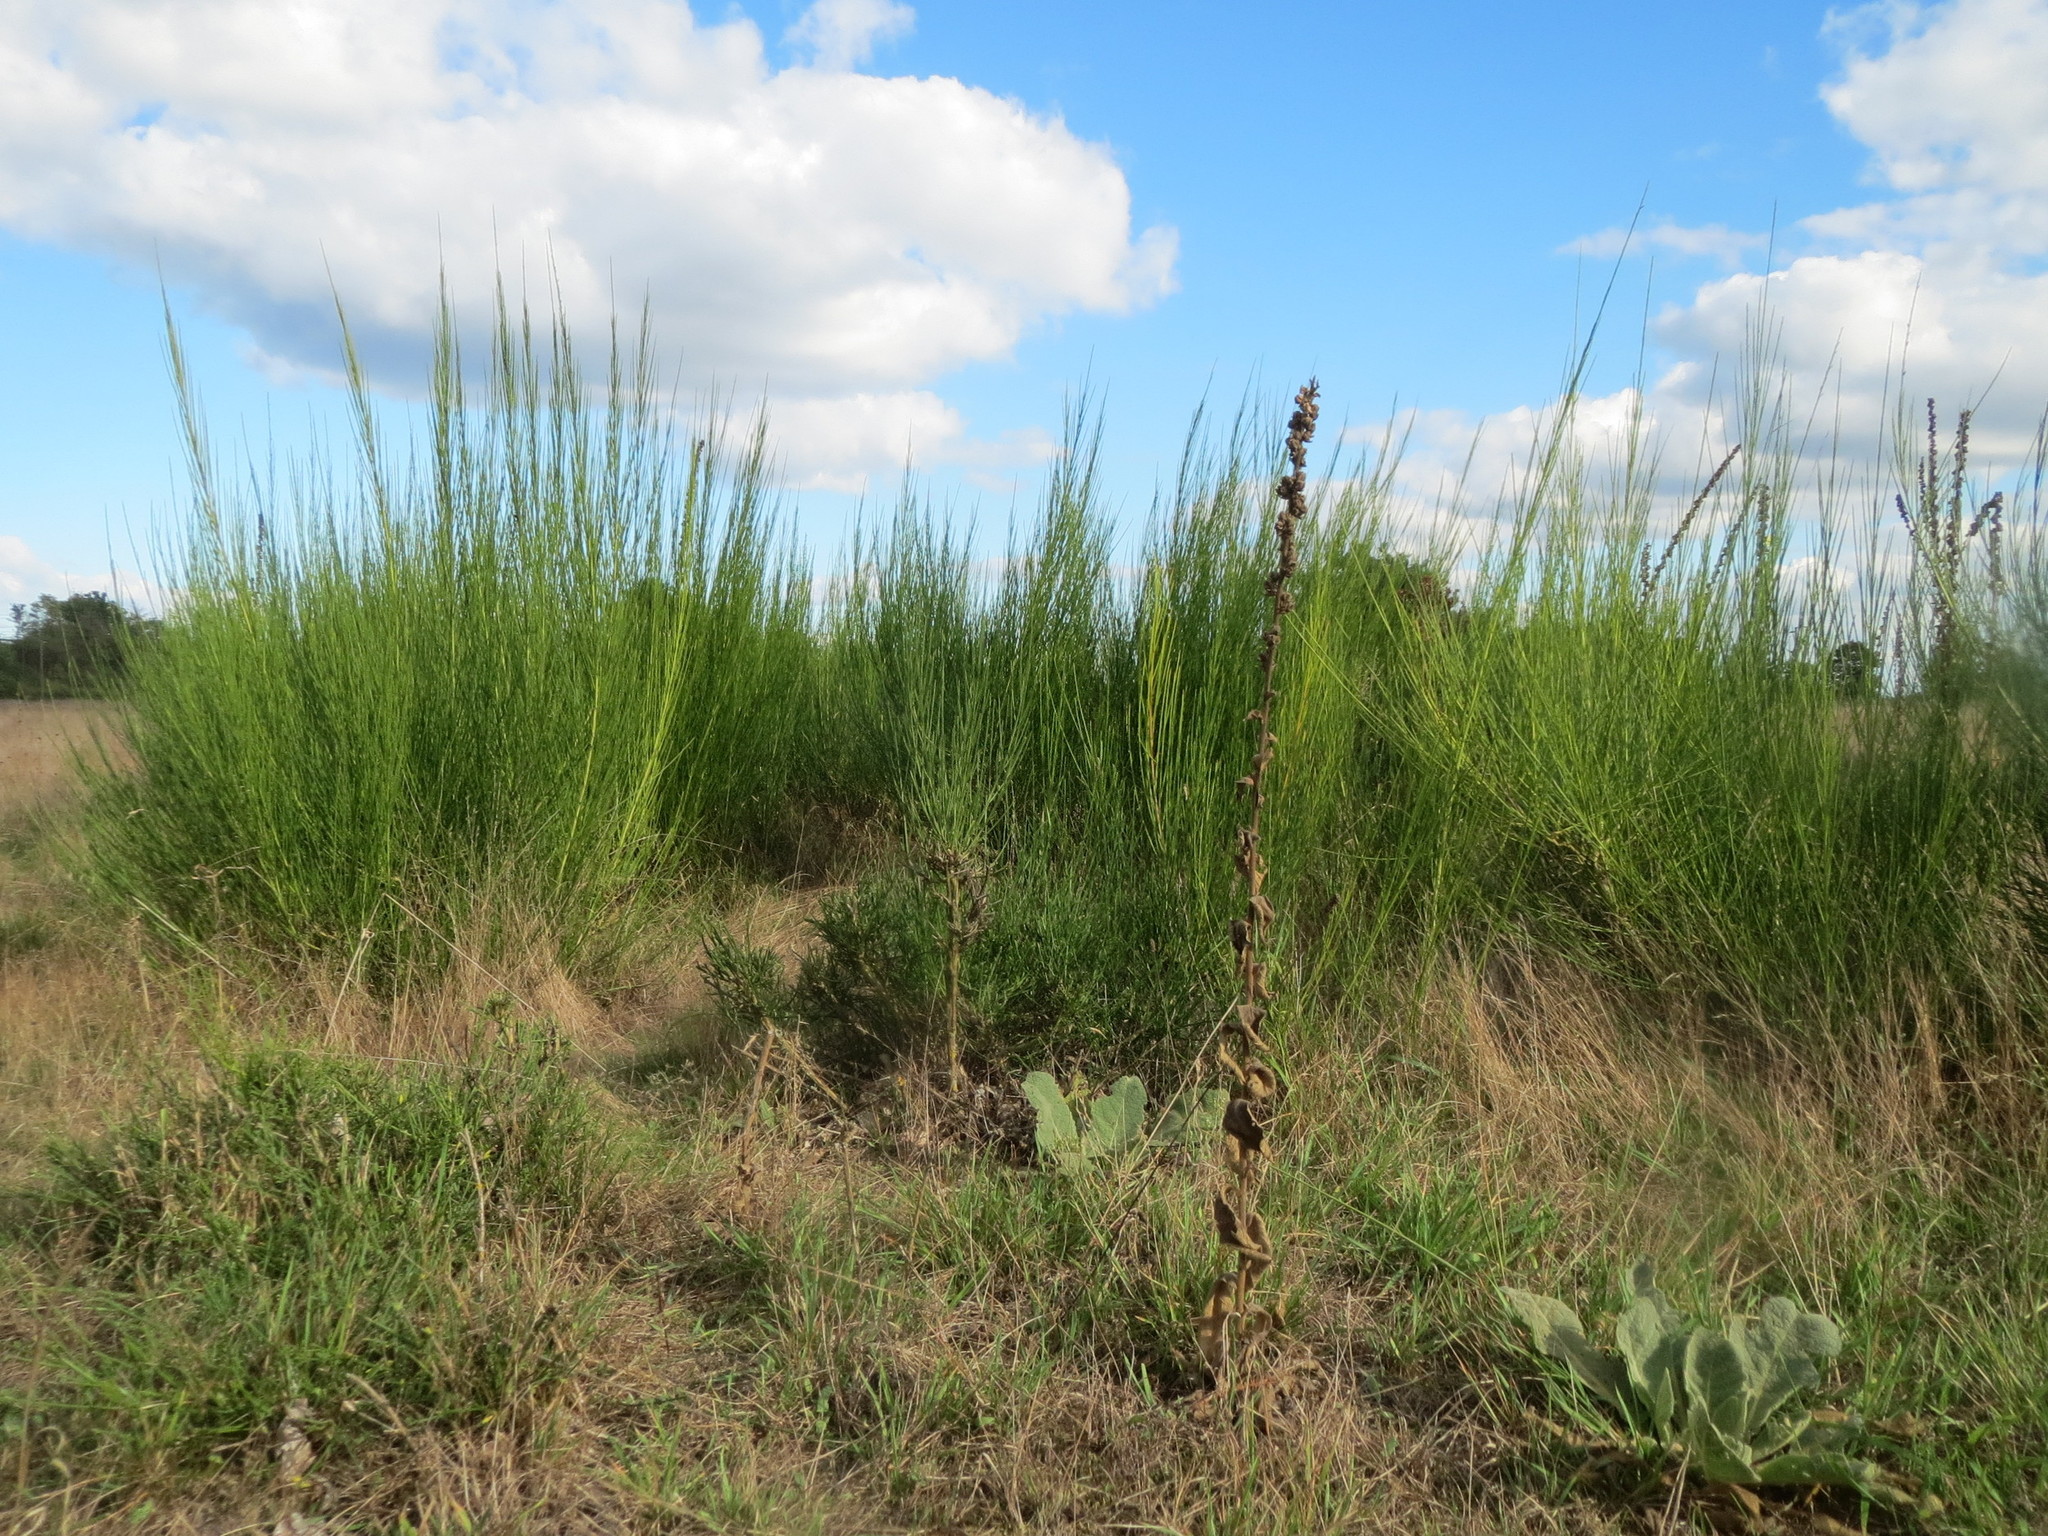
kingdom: Plantae
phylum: Tracheophyta
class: Magnoliopsida
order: Fabales
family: Fabaceae
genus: Cytisus
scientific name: Cytisus scoparius
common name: Scotch broom
